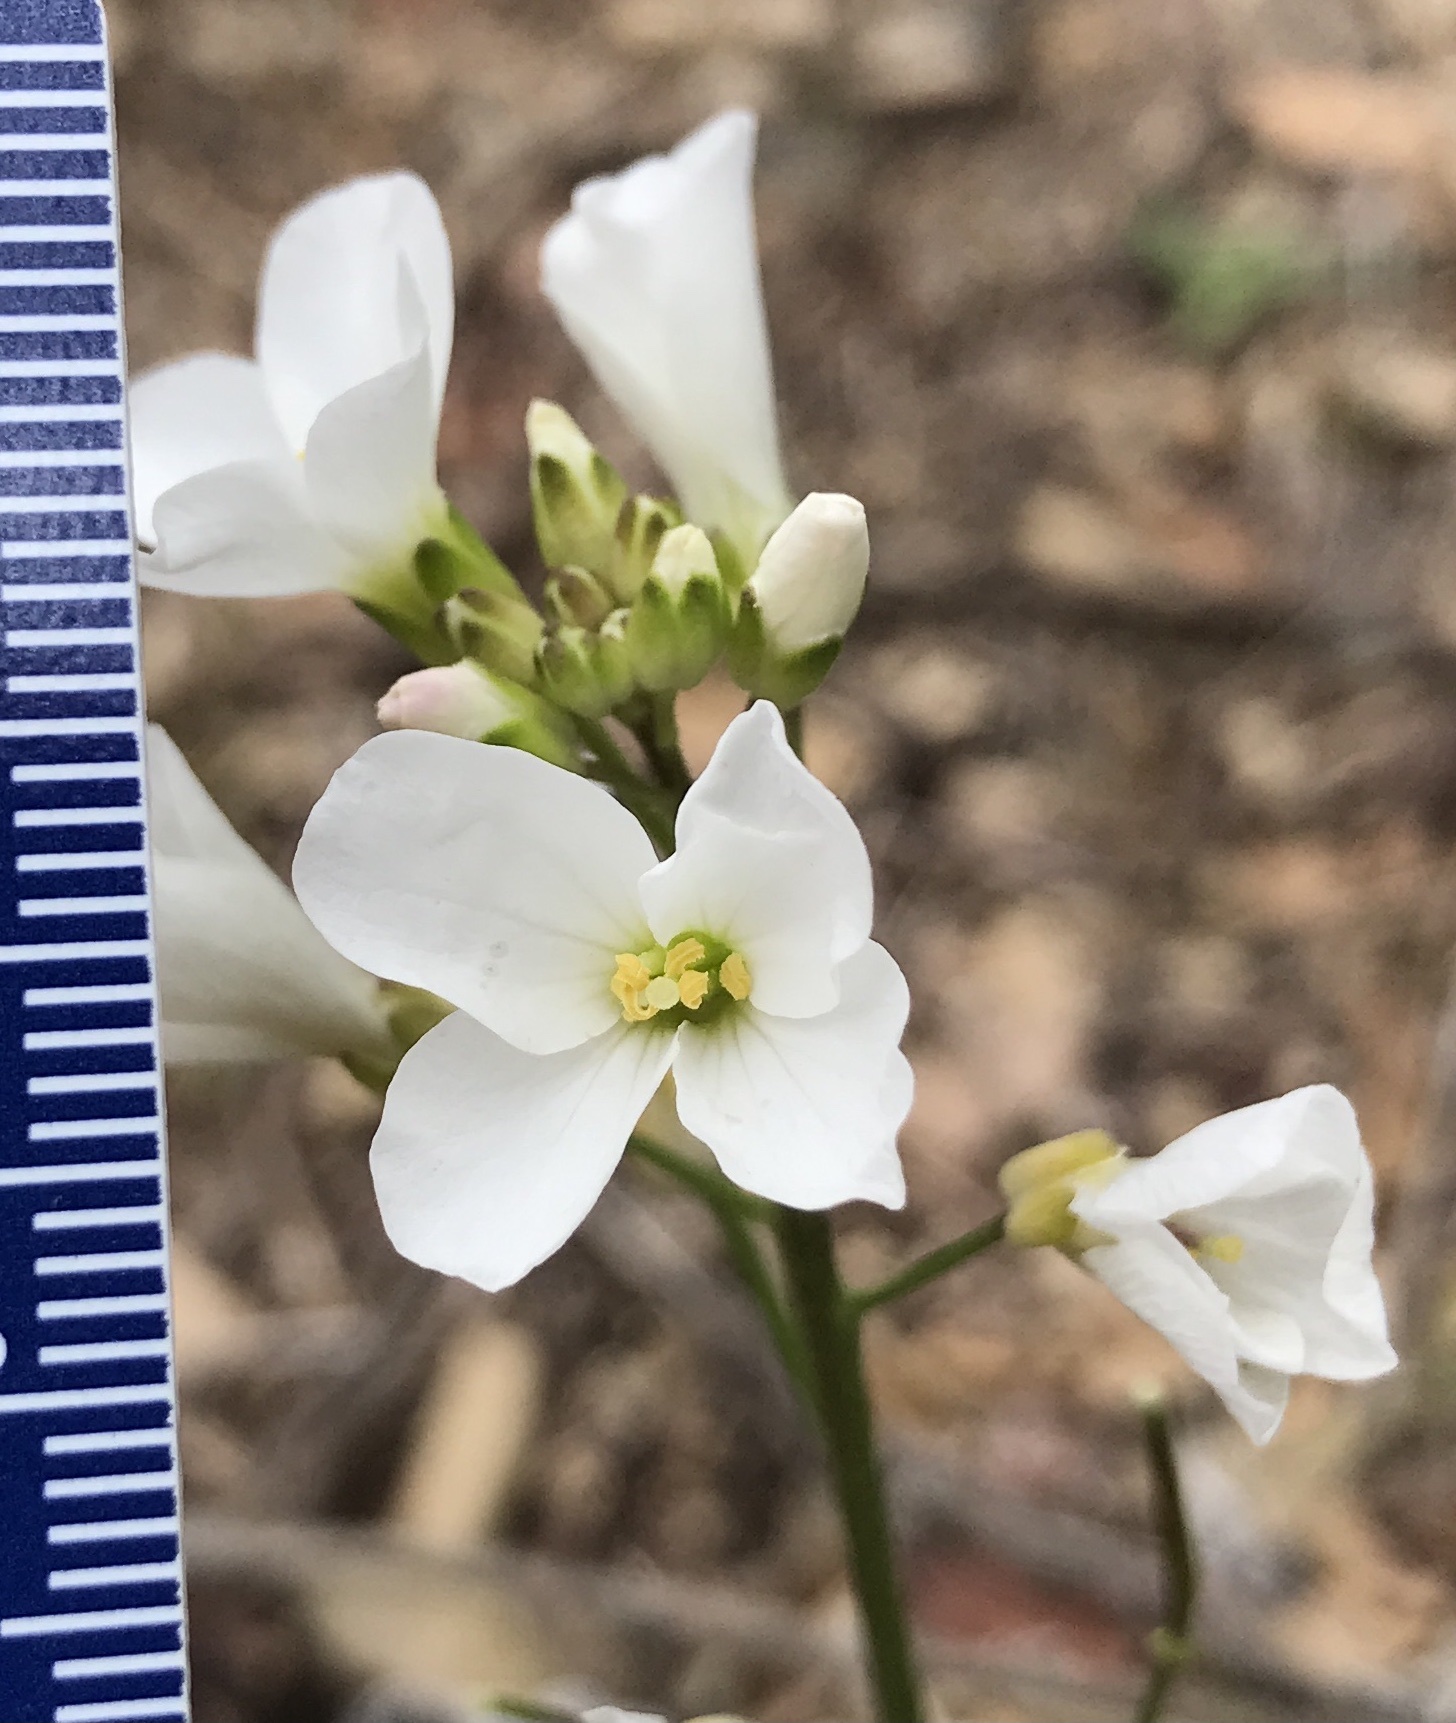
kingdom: Plantae
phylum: Tracheophyta
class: Magnoliopsida
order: Brassicales
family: Brassicaceae
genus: Cardamine
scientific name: Cardamine californica
